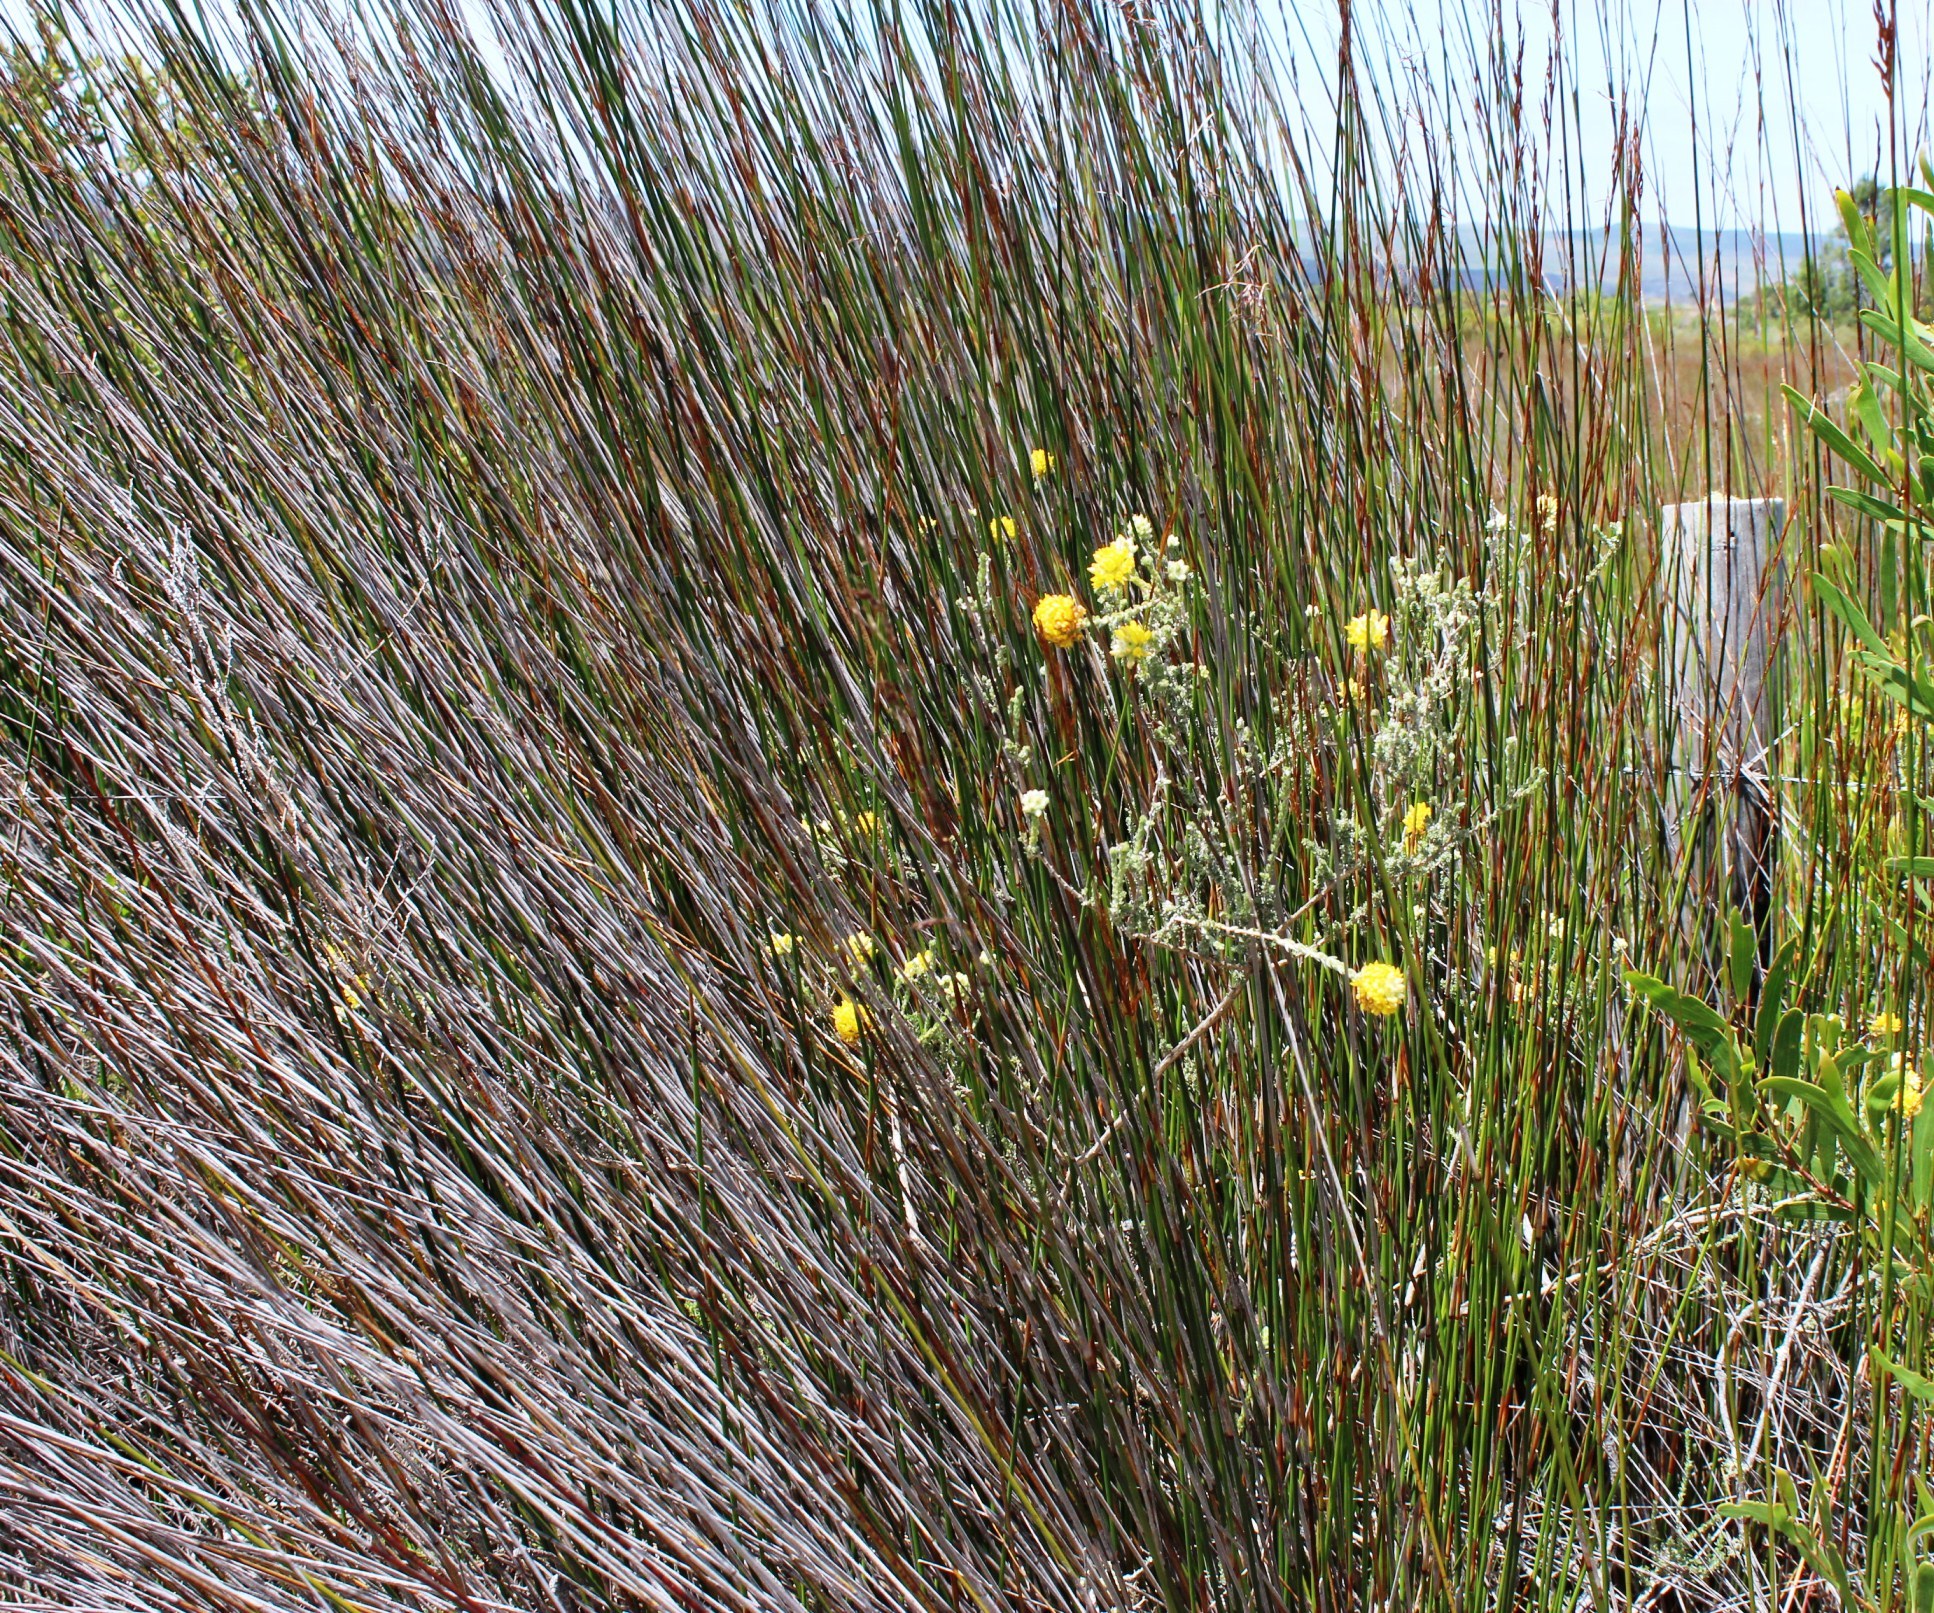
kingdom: Plantae
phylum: Tracheophyta
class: Liliopsida
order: Poales
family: Restionaceae
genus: Thamnochortus
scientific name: Thamnochortus insignis
